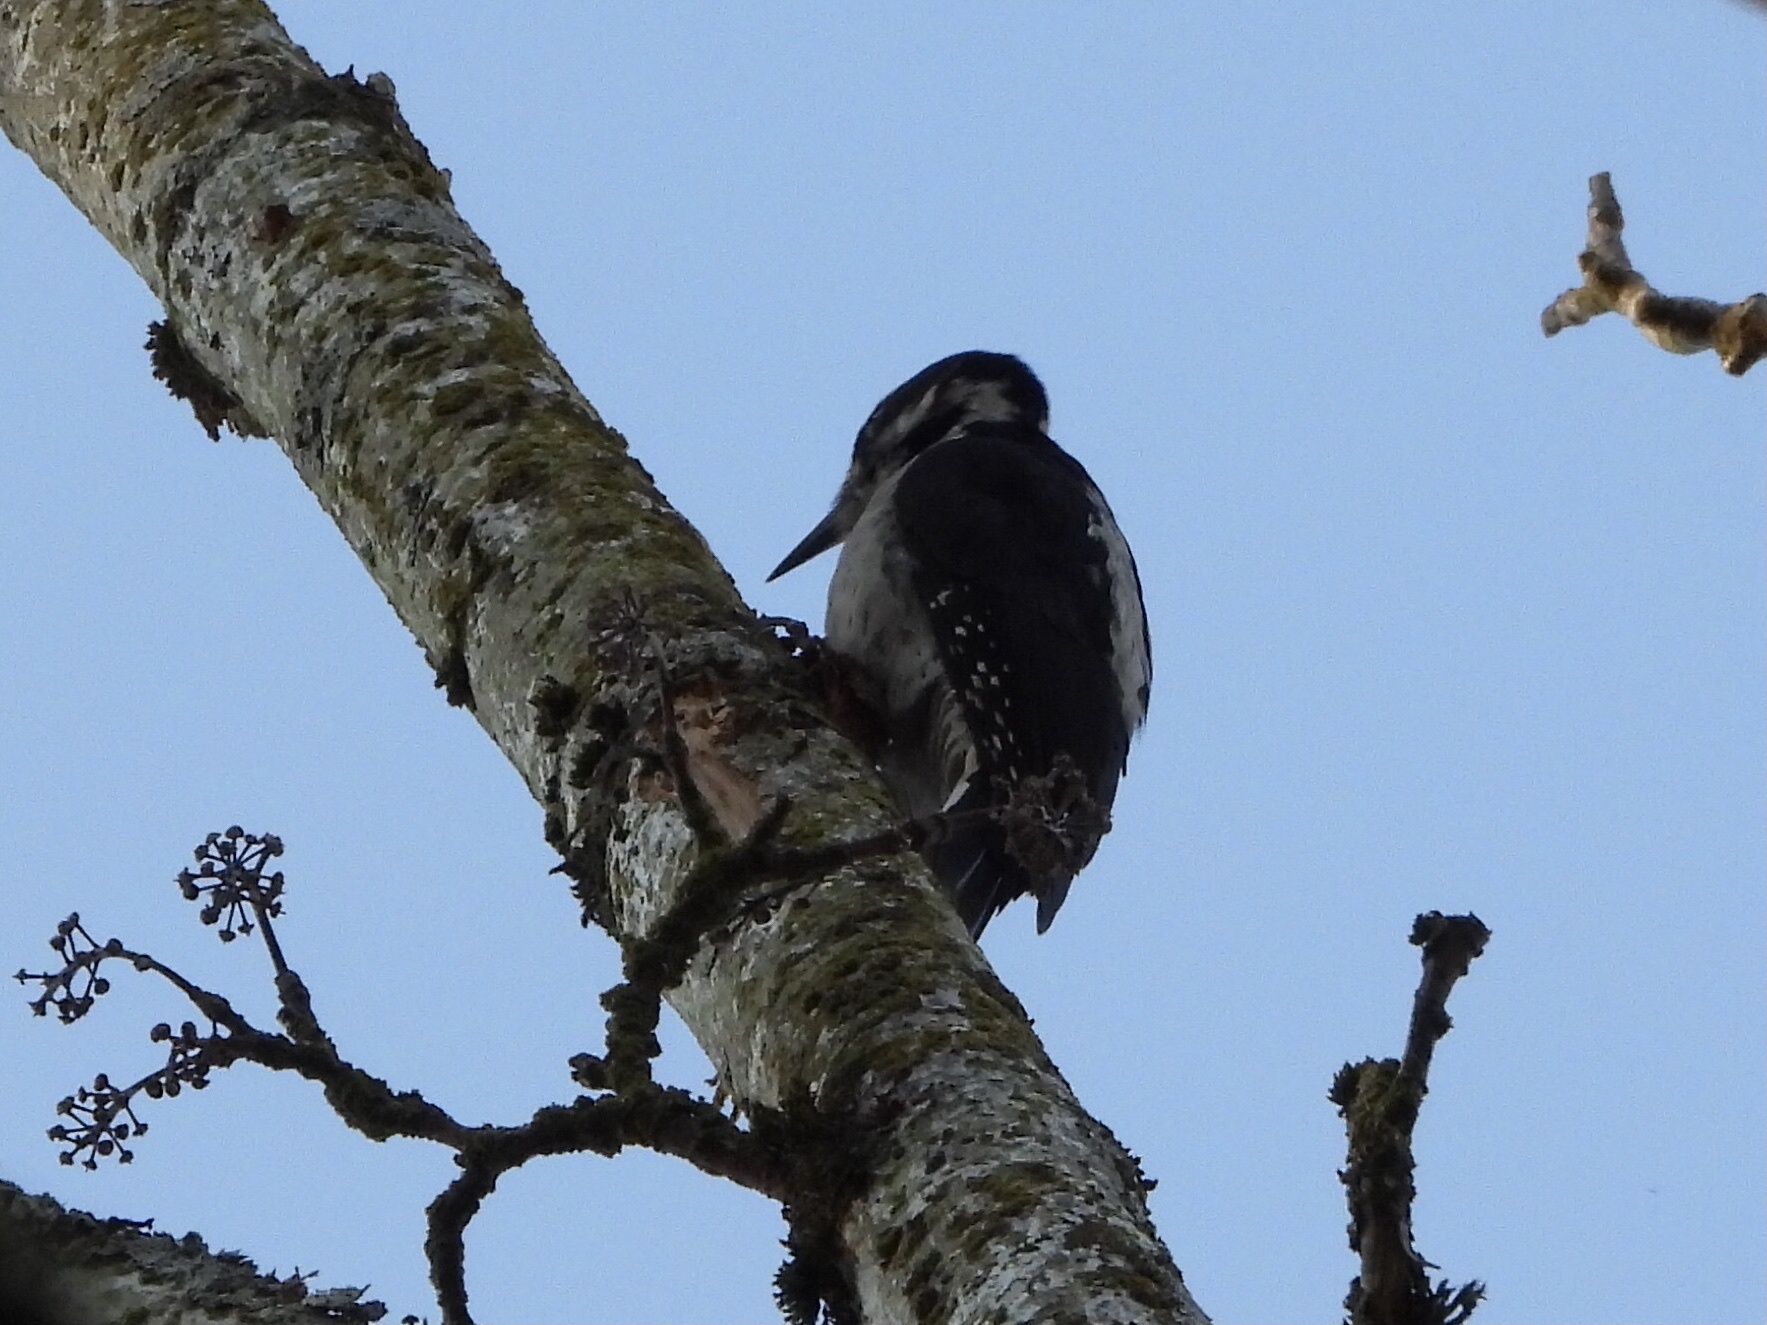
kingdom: Animalia
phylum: Chordata
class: Aves
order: Piciformes
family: Picidae
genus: Leuconotopicus
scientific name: Leuconotopicus villosus
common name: Hairy woodpecker
